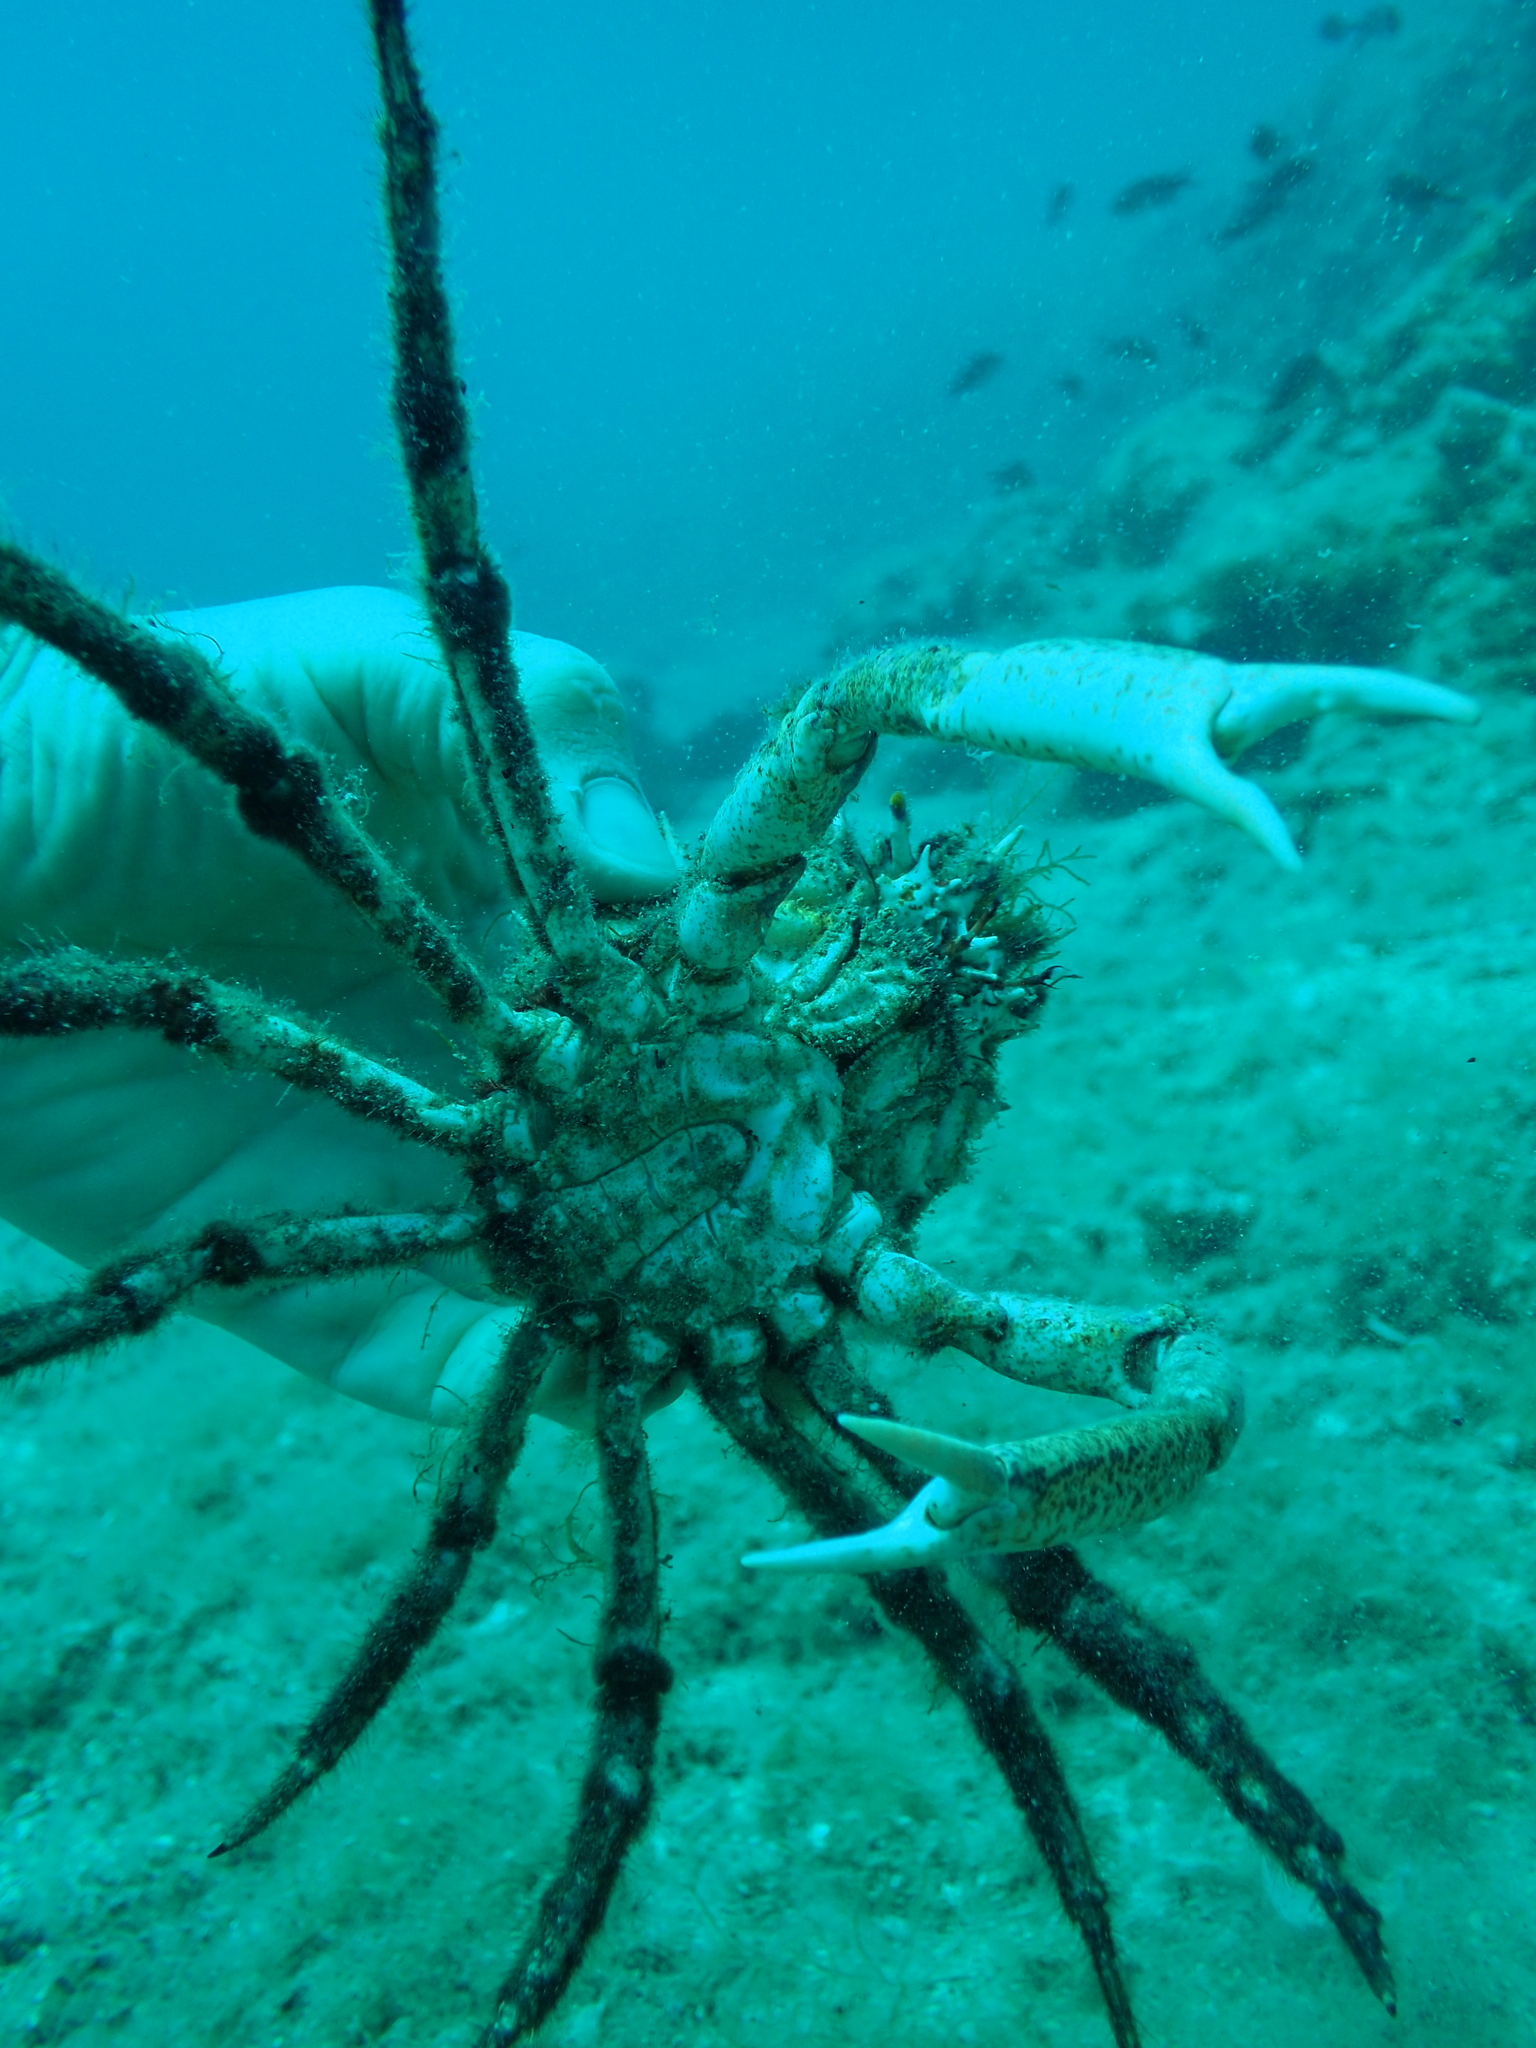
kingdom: Animalia
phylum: Arthropoda
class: Malacostraca
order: Decapoda
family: Majidae
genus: Maja
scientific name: Maja crispata
